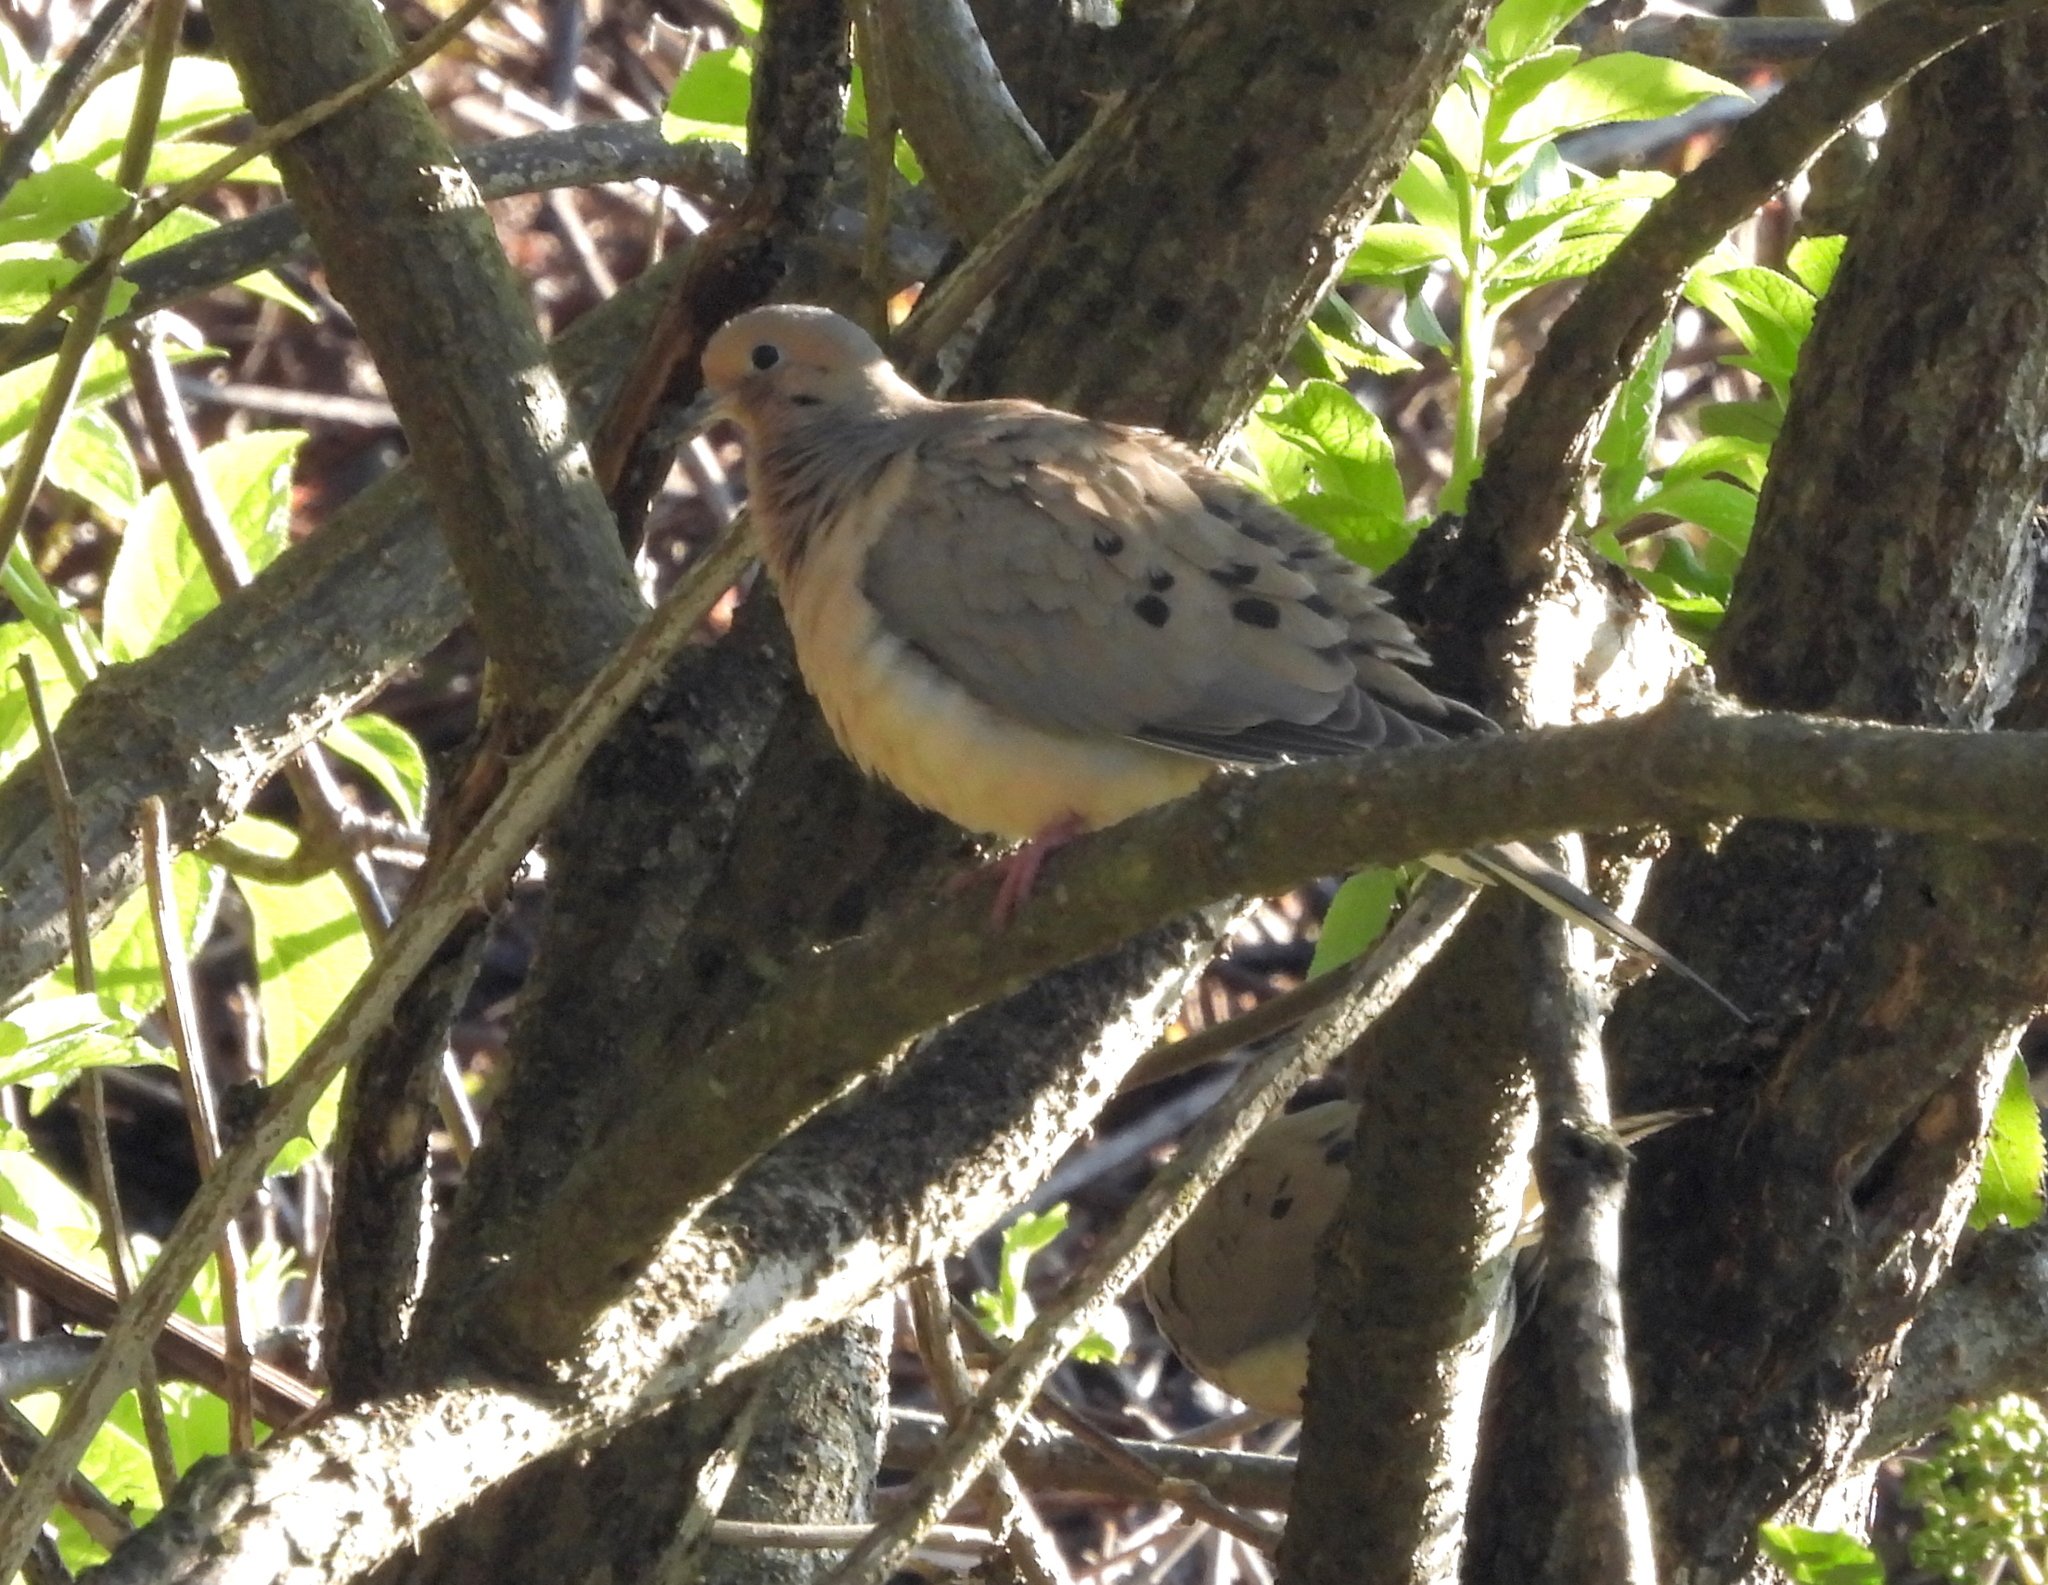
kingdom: Animalia
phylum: Chordata
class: Aves
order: Columbiformes
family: Columbidae
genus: Zenaida
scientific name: Zenaida macroura
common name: Mourning dove
